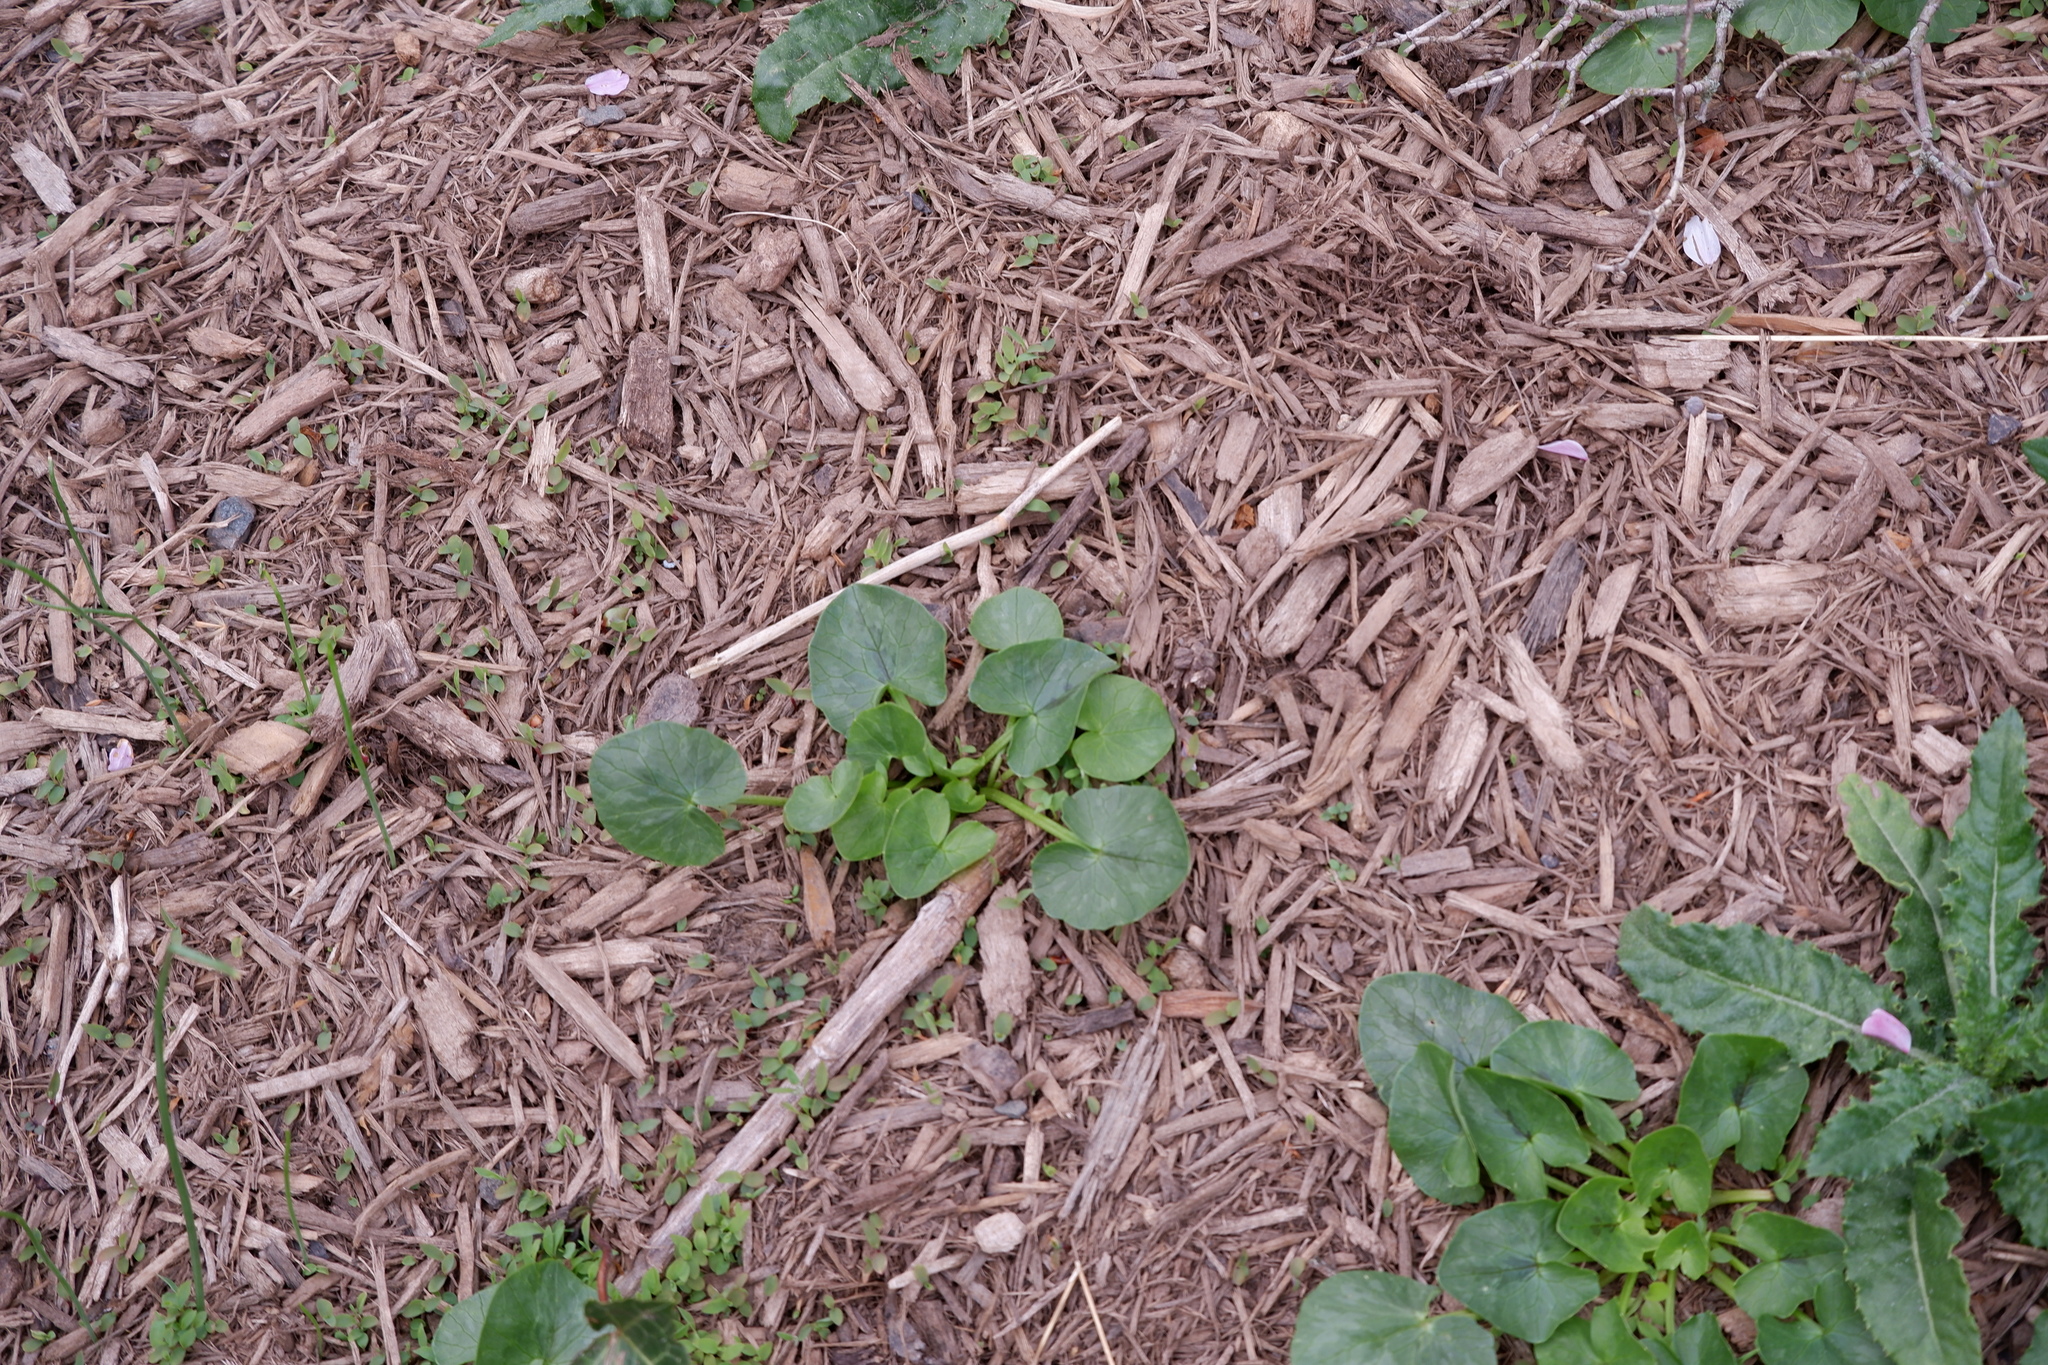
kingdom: Plantae
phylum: Tracheophyta
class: Magnoliopsida
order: Ranunculales
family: Ranunculaceae
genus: Ficaria
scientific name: Ficaria verna
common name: Lesser celandine
